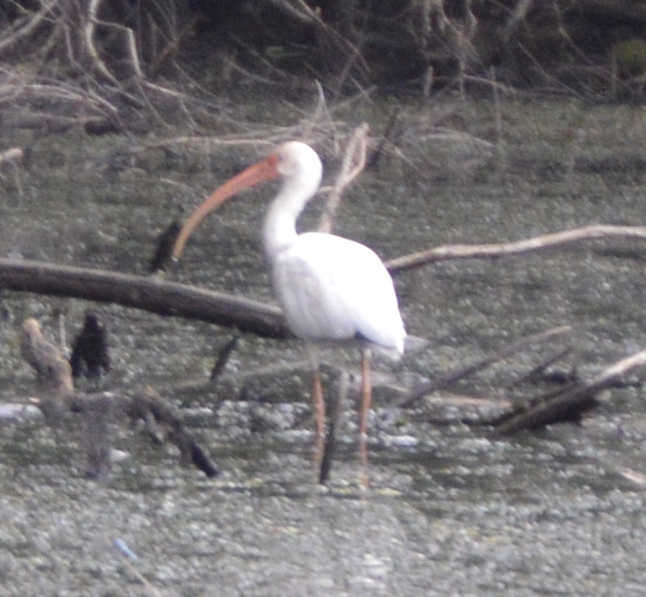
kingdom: Animalia
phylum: Chordata
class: Aves
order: Pelecaniformes
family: Threskiornithidae
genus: Eudocimus
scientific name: Eudocimus albus
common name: White ibis
